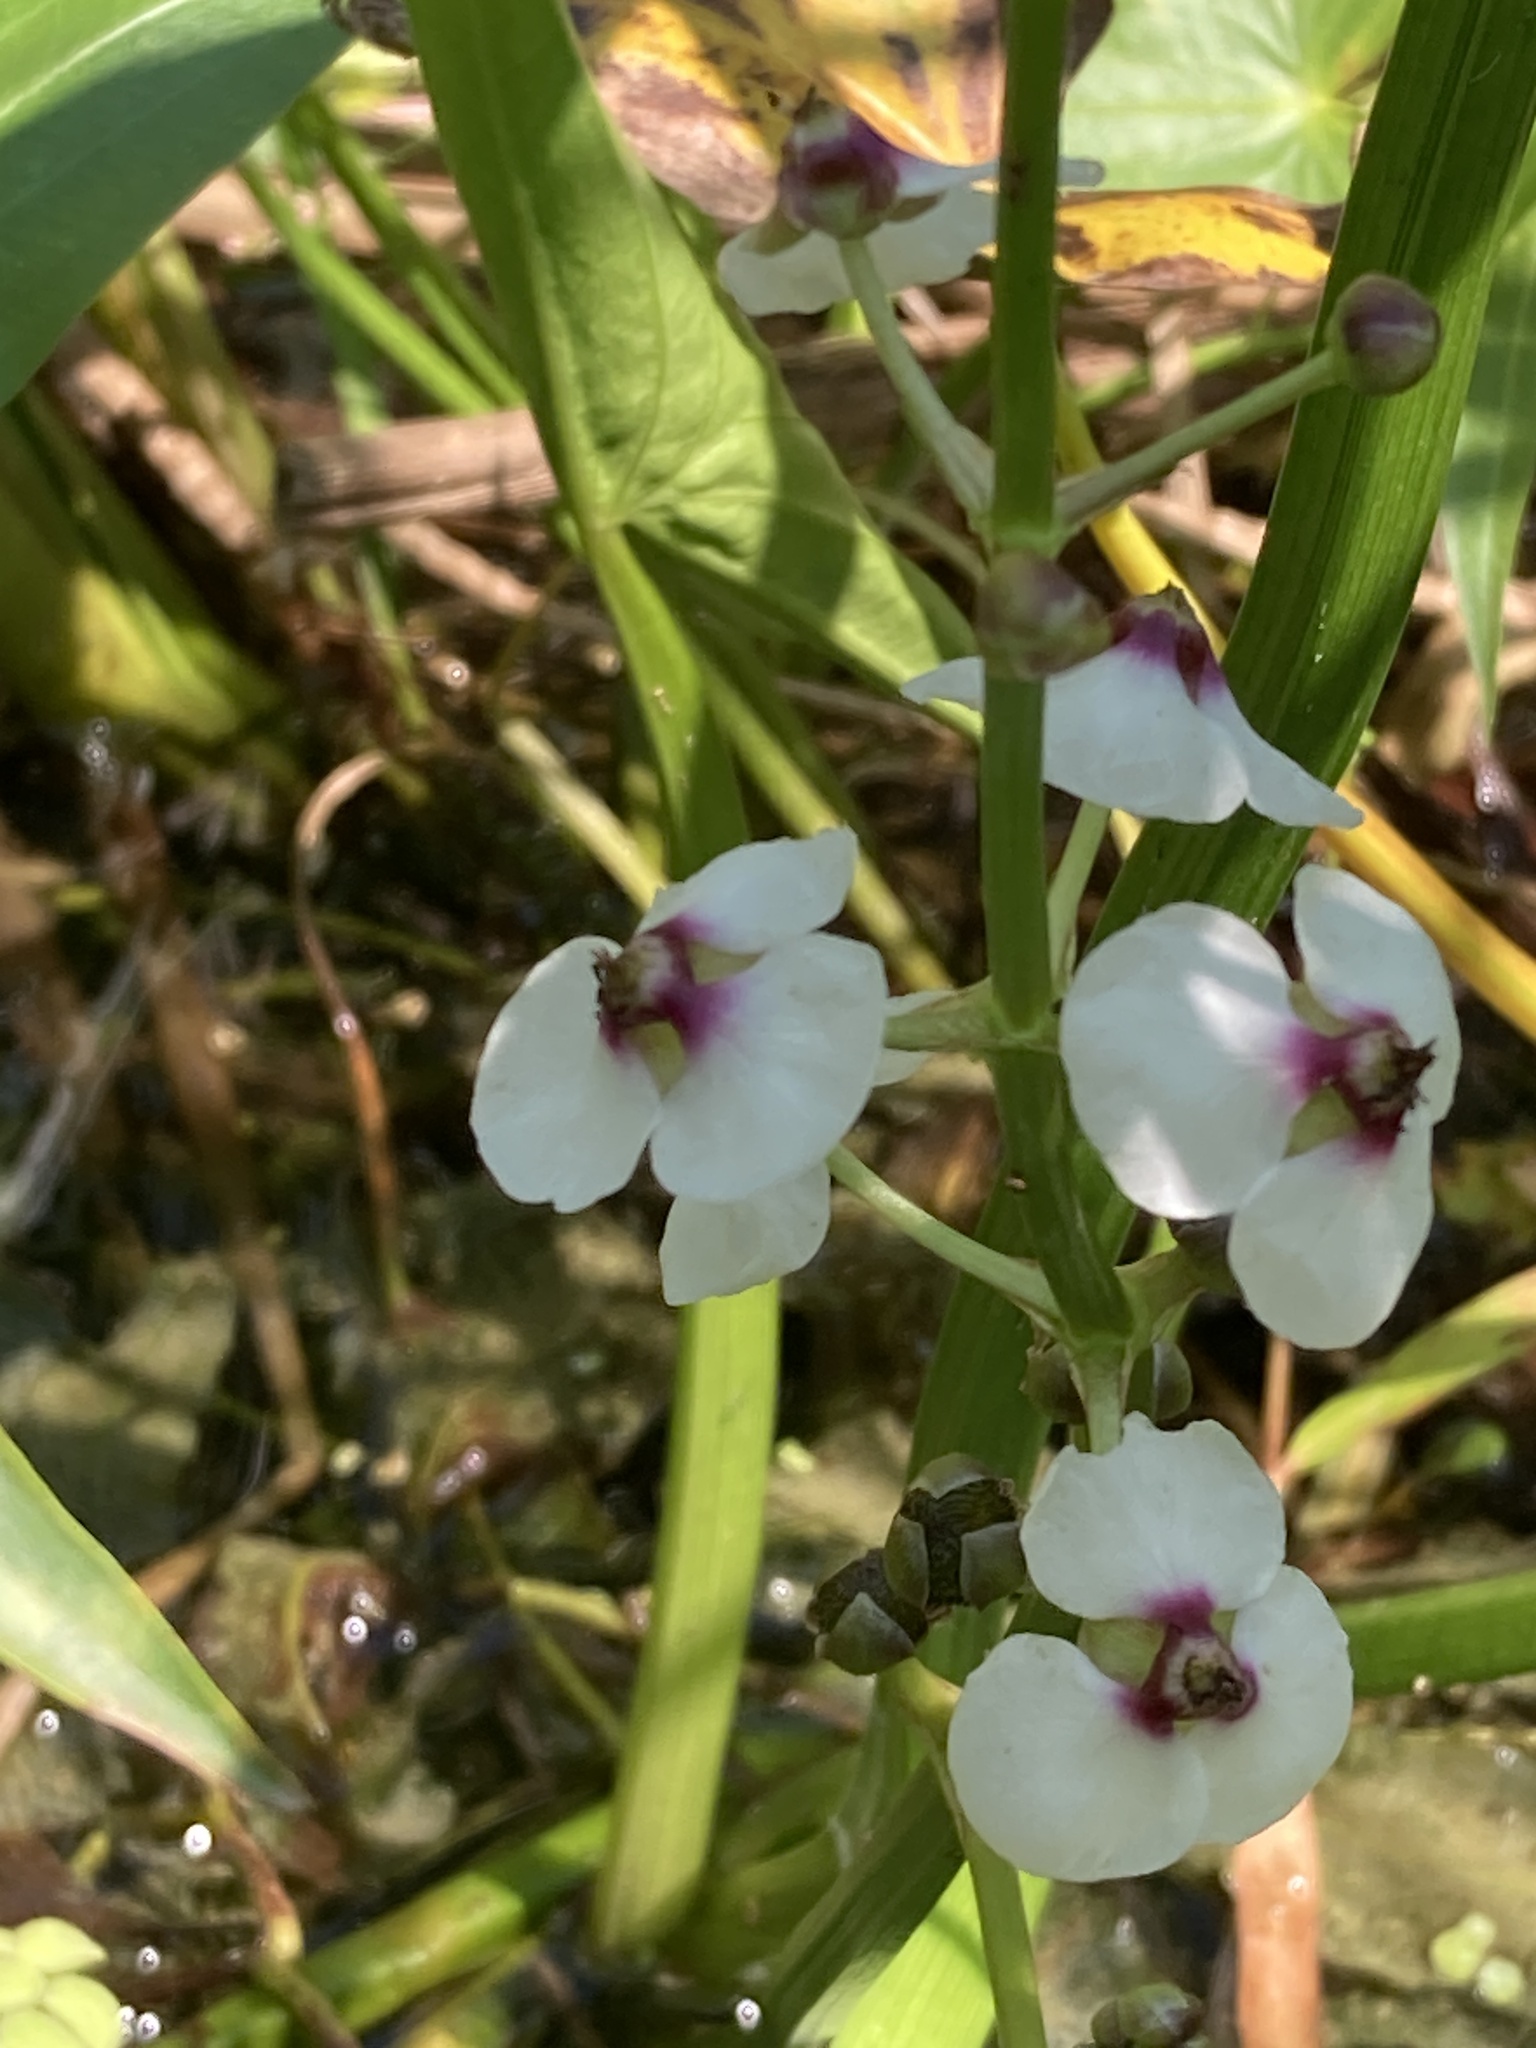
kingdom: Plantae
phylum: Tracheophyta
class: Liliopsida
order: Alismatales
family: Alismataceae
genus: Sagittaria
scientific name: Sagittaria sagittifolia
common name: Arrowhead
